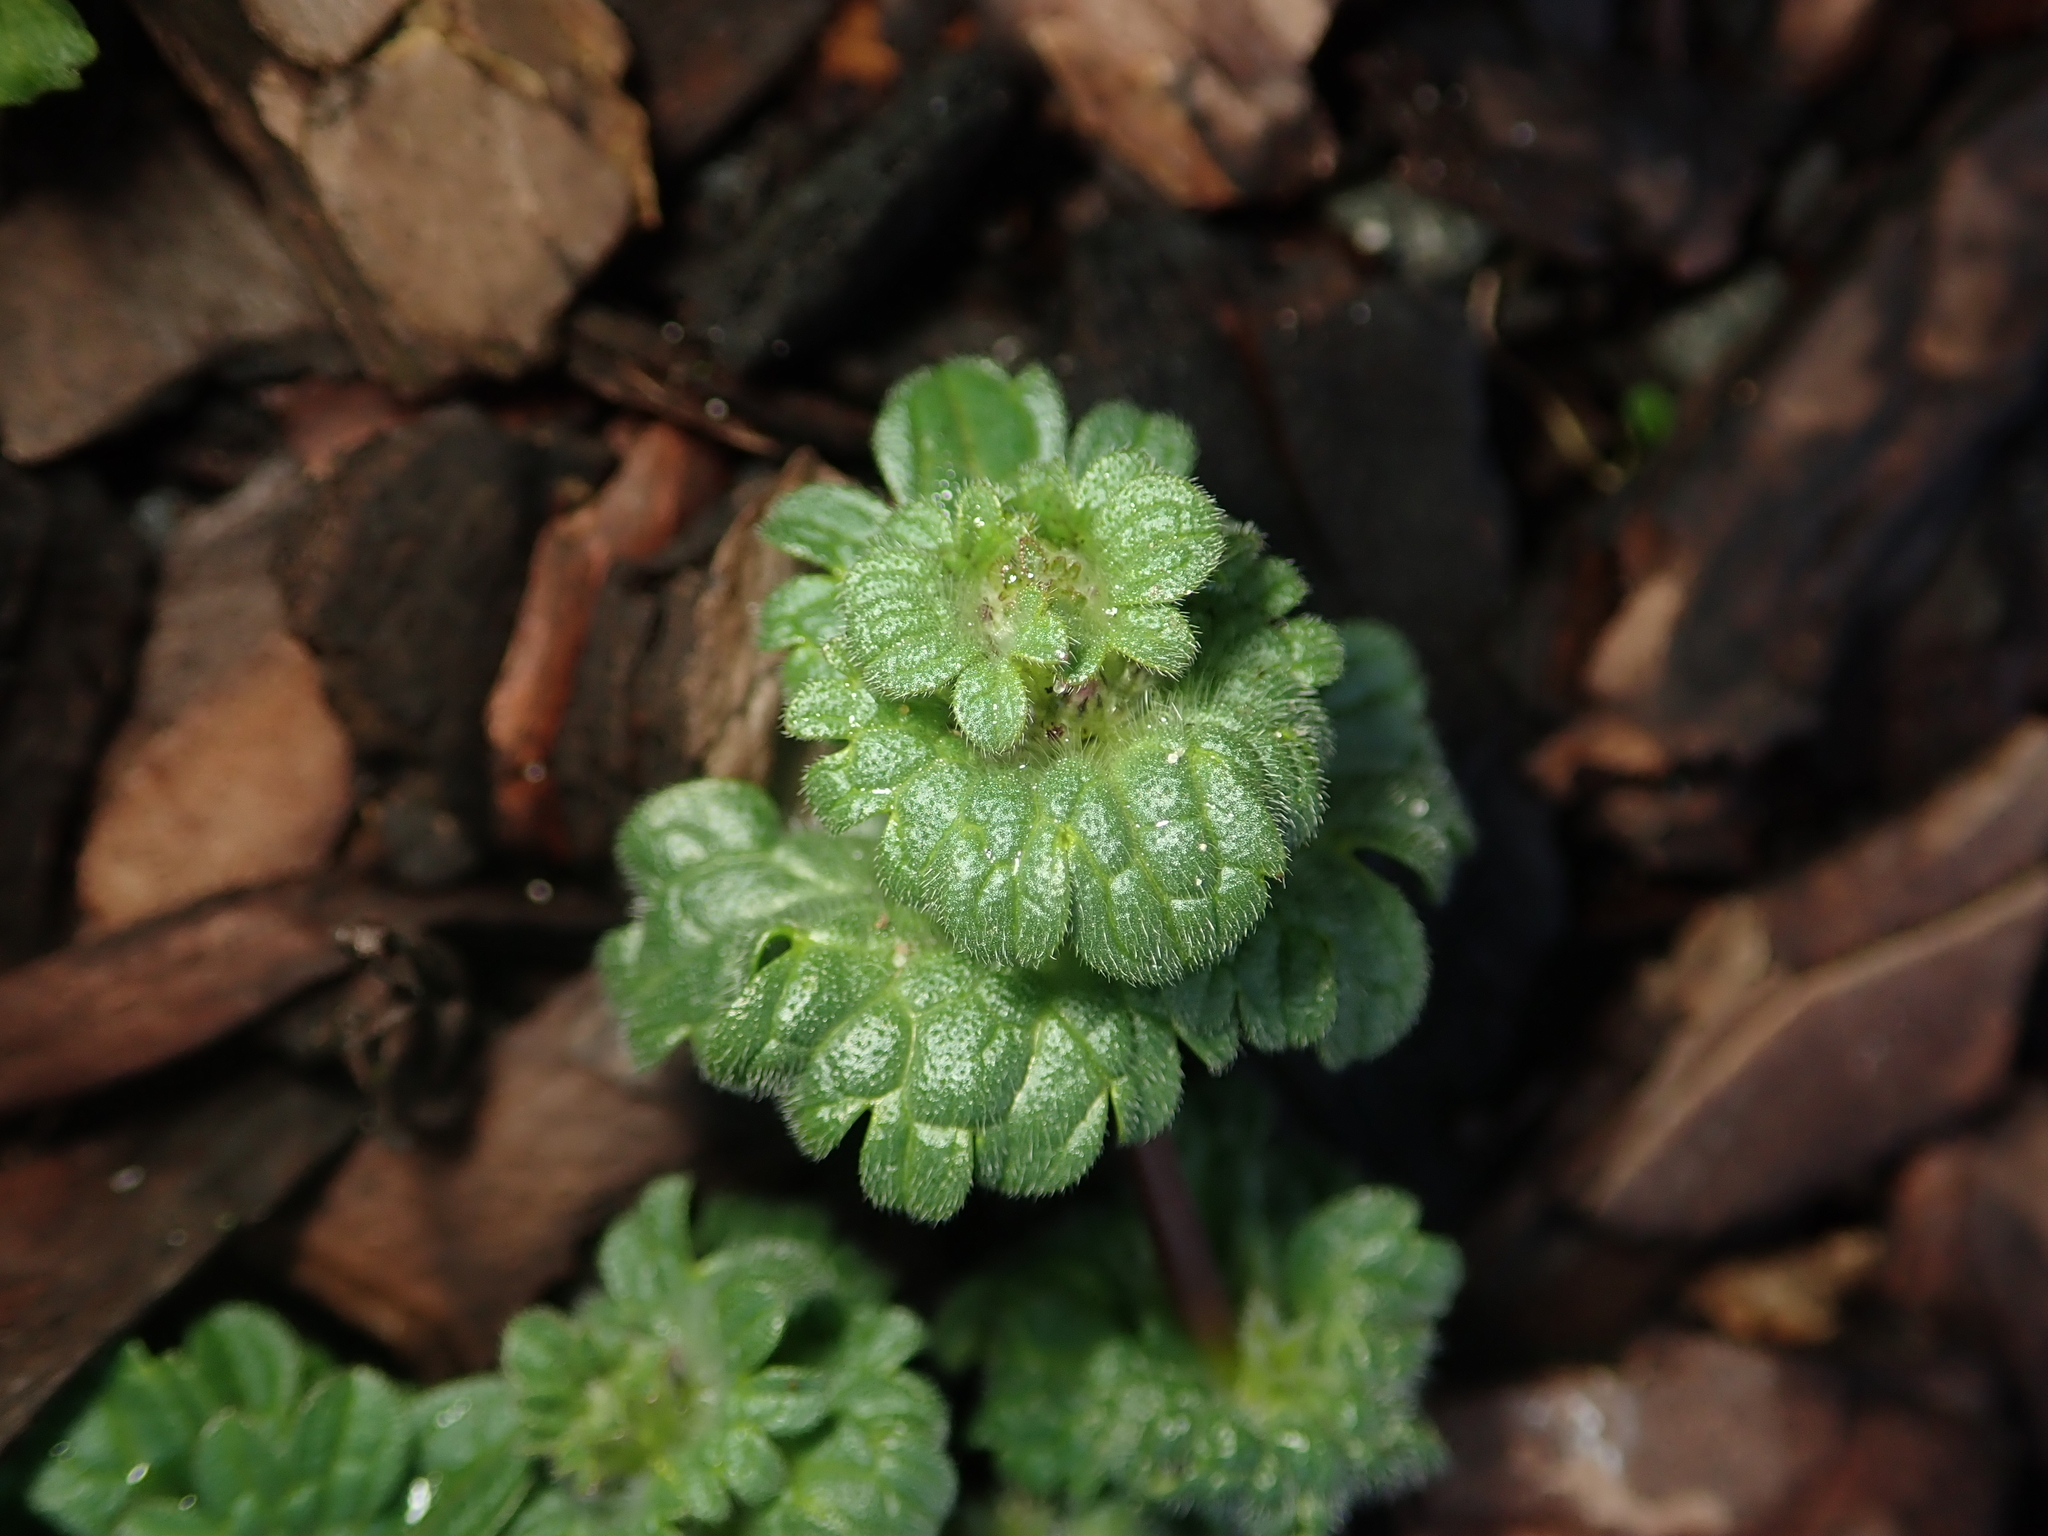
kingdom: Plantae
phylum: Tracheophyta
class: Magnoliopsida
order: Lamiales
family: Lamiaceae
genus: Lamium
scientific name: Lamium amplexicaule
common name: Henbit dead-nettle
